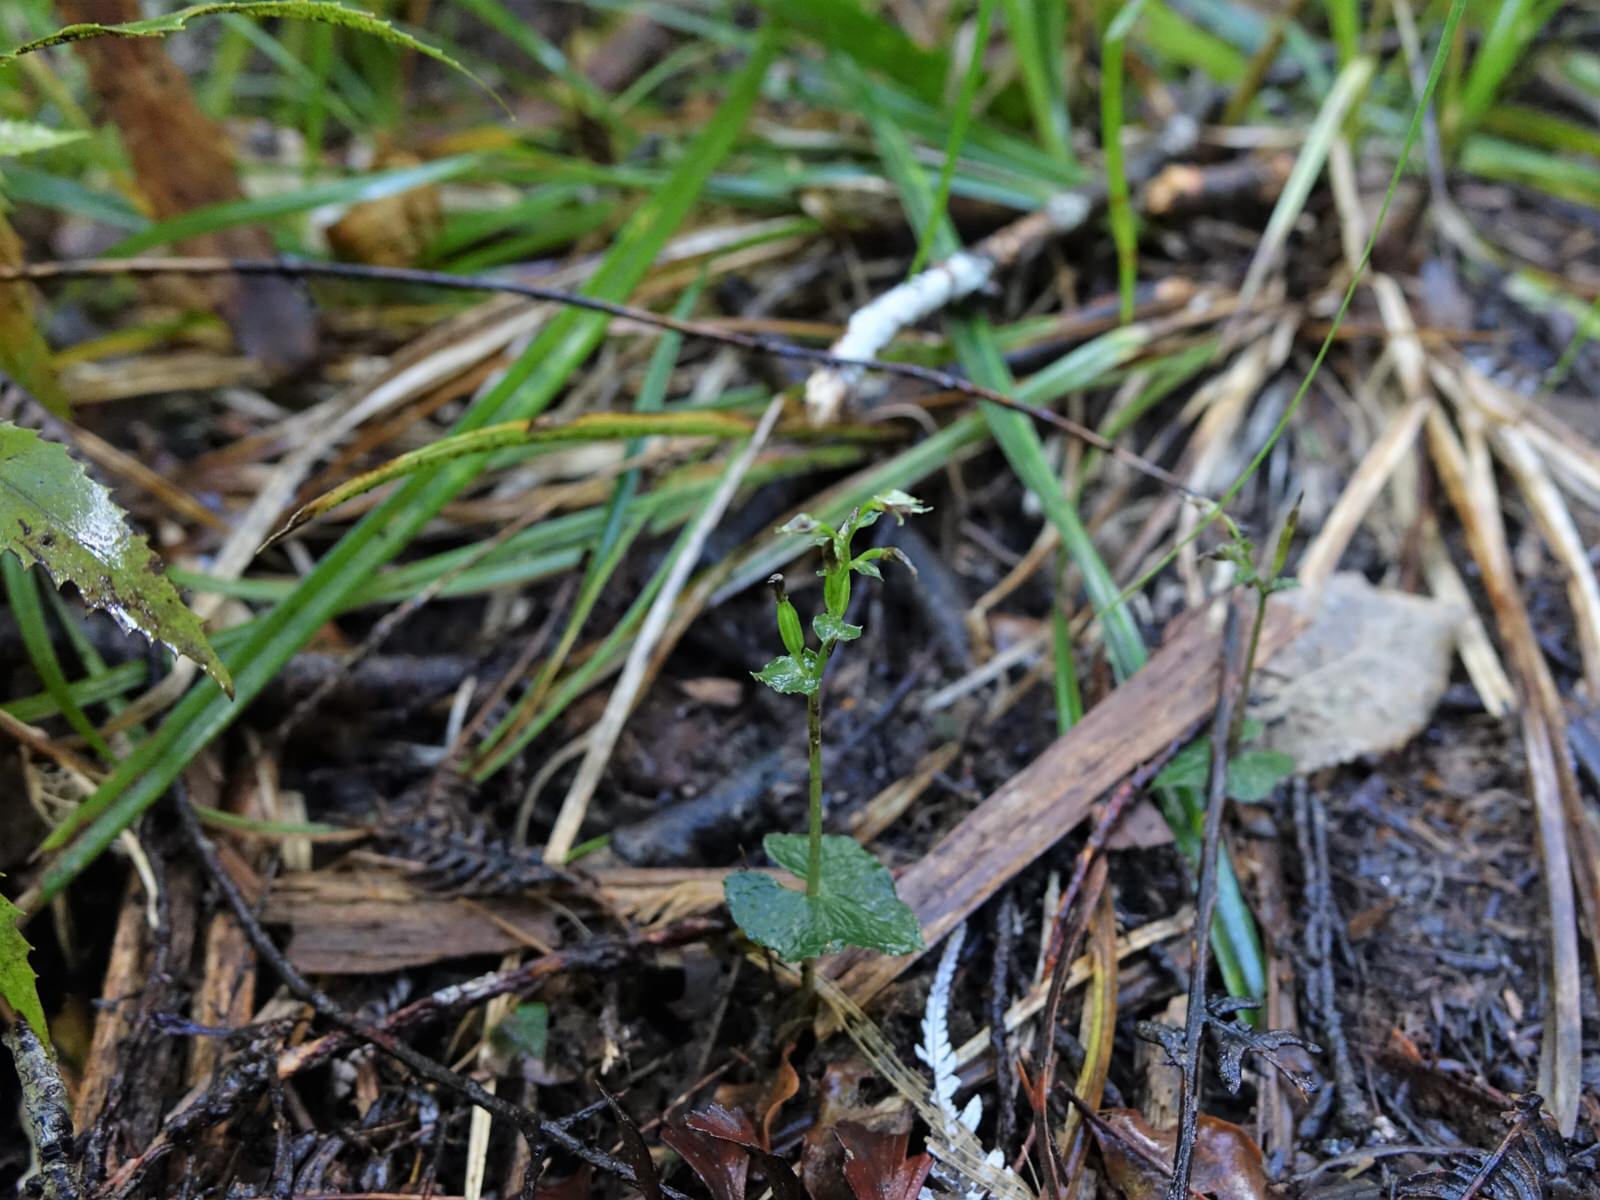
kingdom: Plantae
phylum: Tracheophyta
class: Liliopsida
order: Asparagales
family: Orchidaceae
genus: Acianthus
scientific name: Acianthus sinclairii
